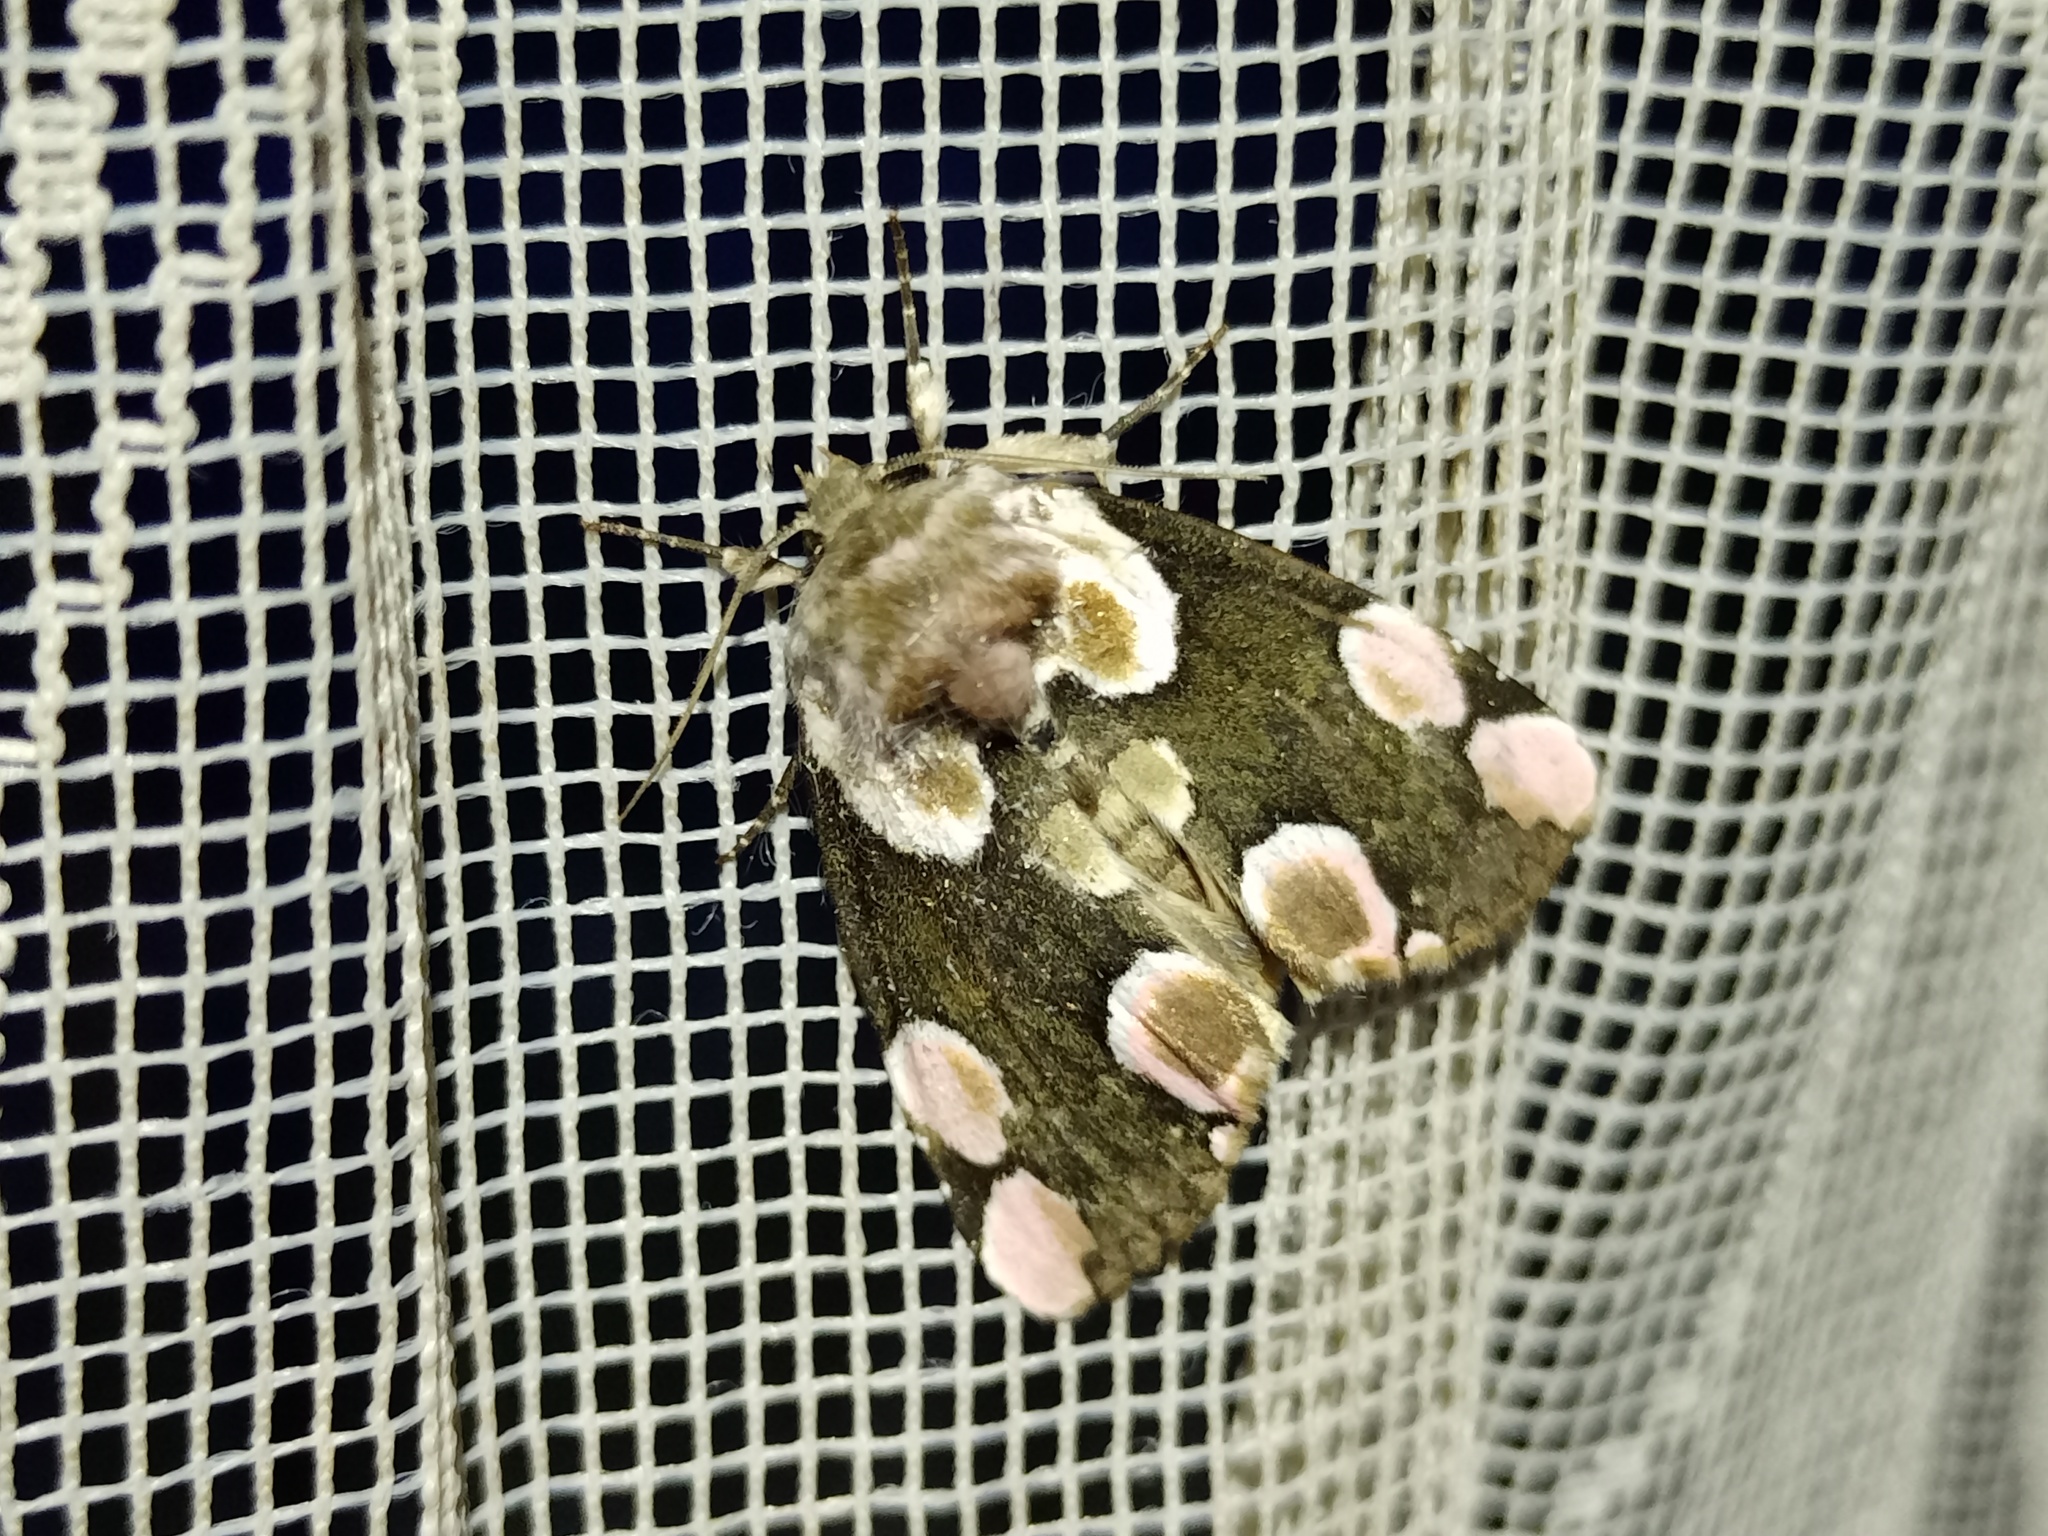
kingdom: Animalia
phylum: Arthropoda
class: Insecta
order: Lepidoptera
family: Drepanidae
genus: Thyatira
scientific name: Thyatira batis
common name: Peach blossom
